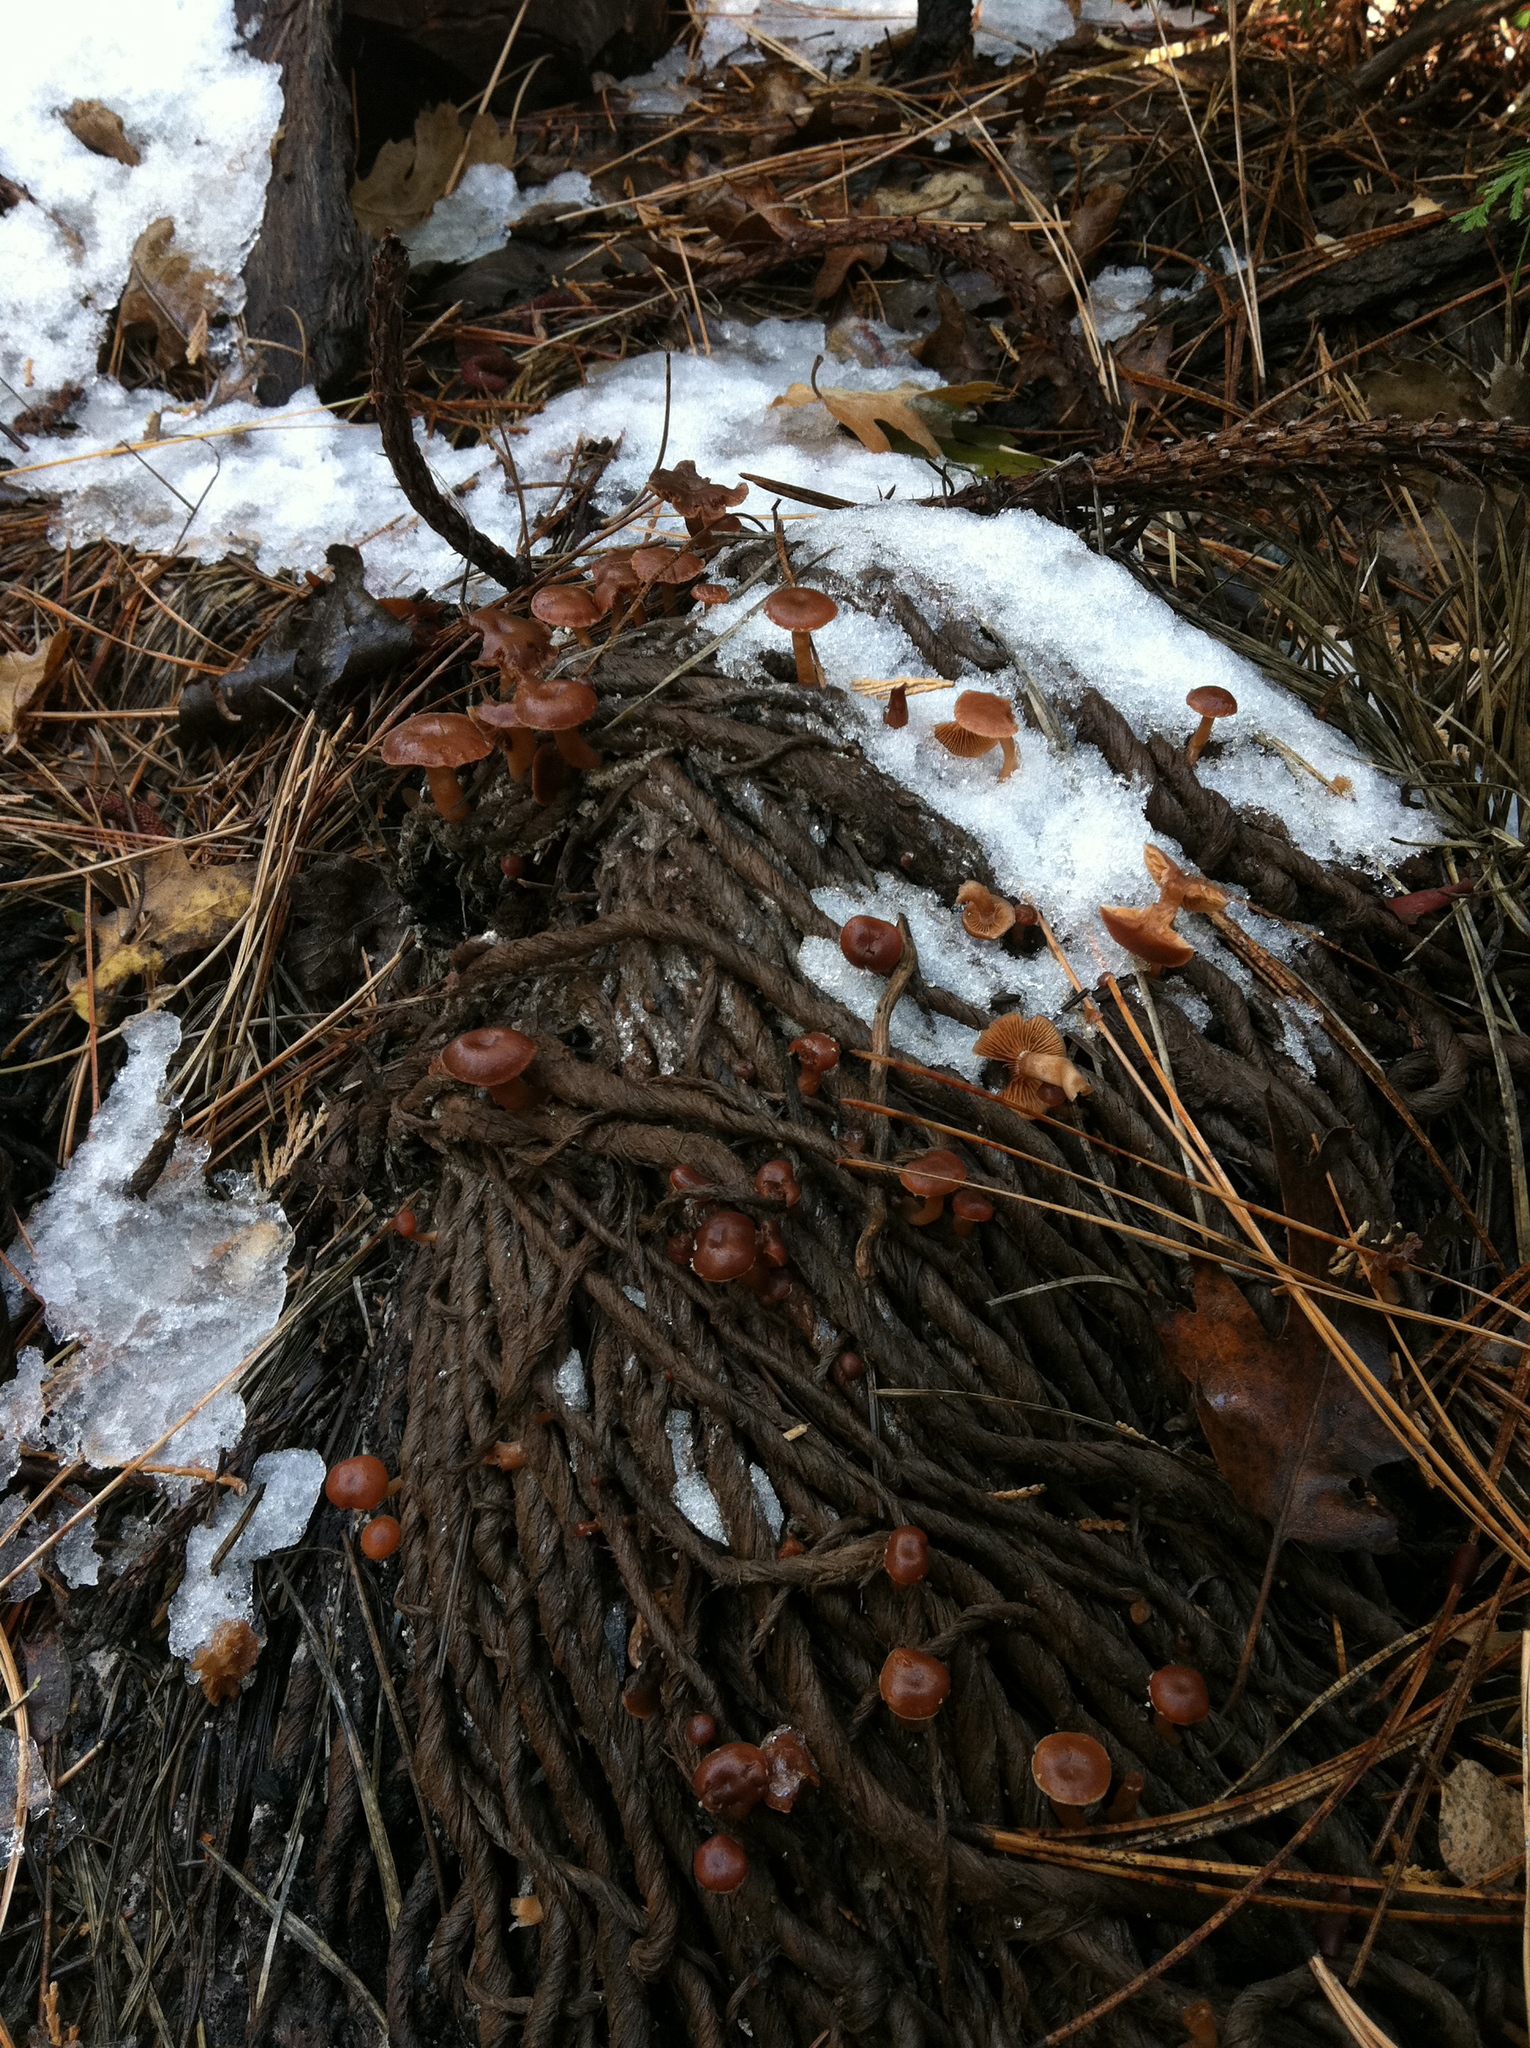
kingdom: Fungi
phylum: Basidiomycota
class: Agaricomycetes
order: Agaricales
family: Tubariaceae
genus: Tubaria
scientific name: Tubaria furfuracea
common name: Scurfy twiglet
